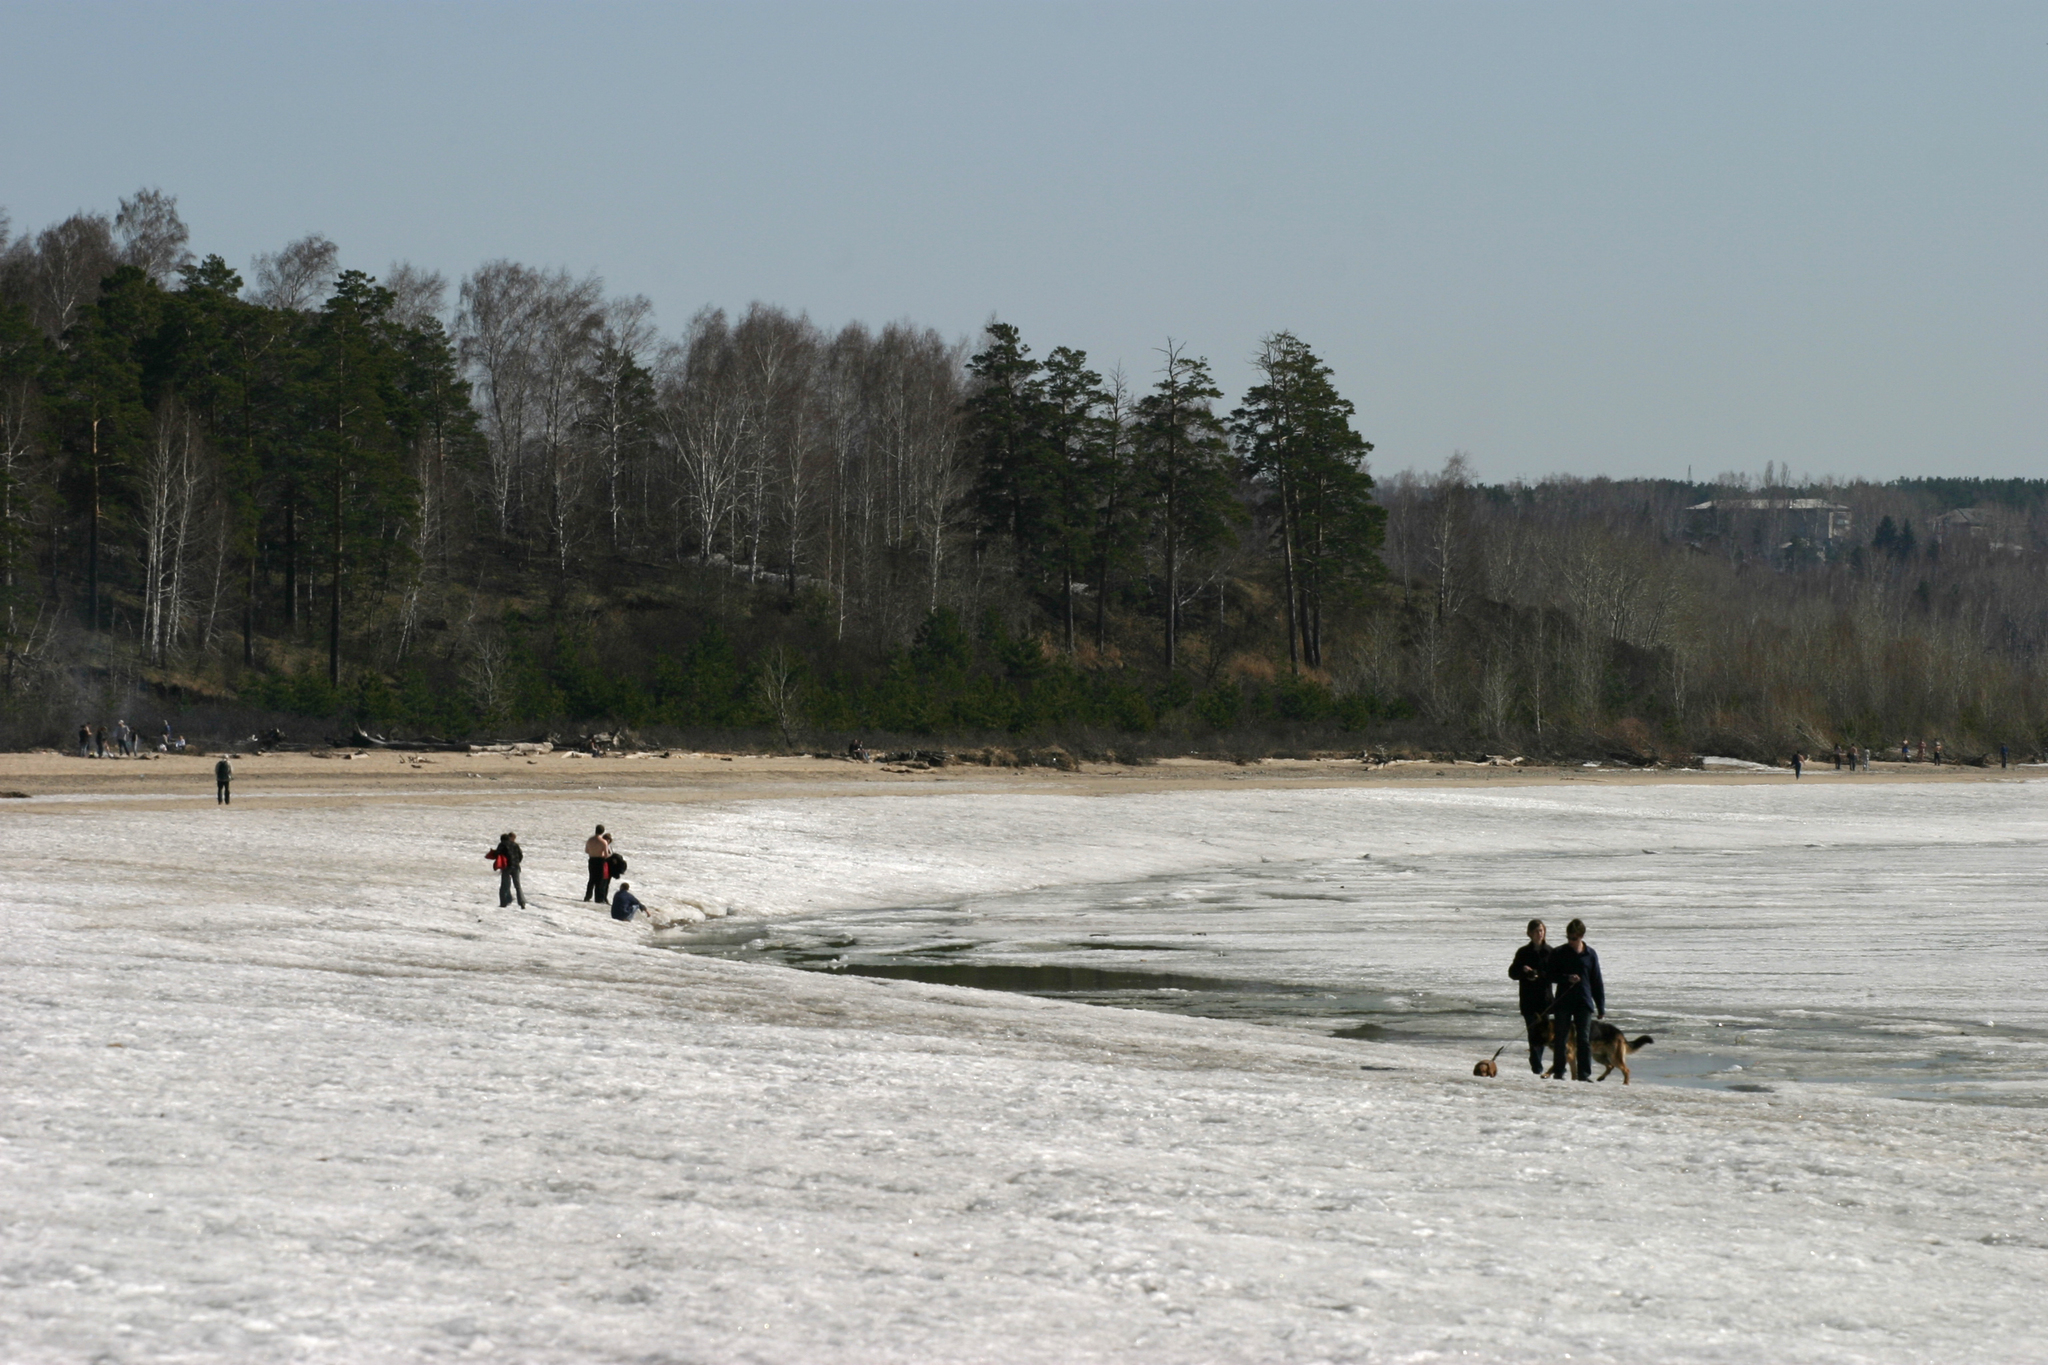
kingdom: Plantae
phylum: Tracheophyta
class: Pinopsida
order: Pinales
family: Pinaceae
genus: Pinus
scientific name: Pinus sylvestris
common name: Scots pine
